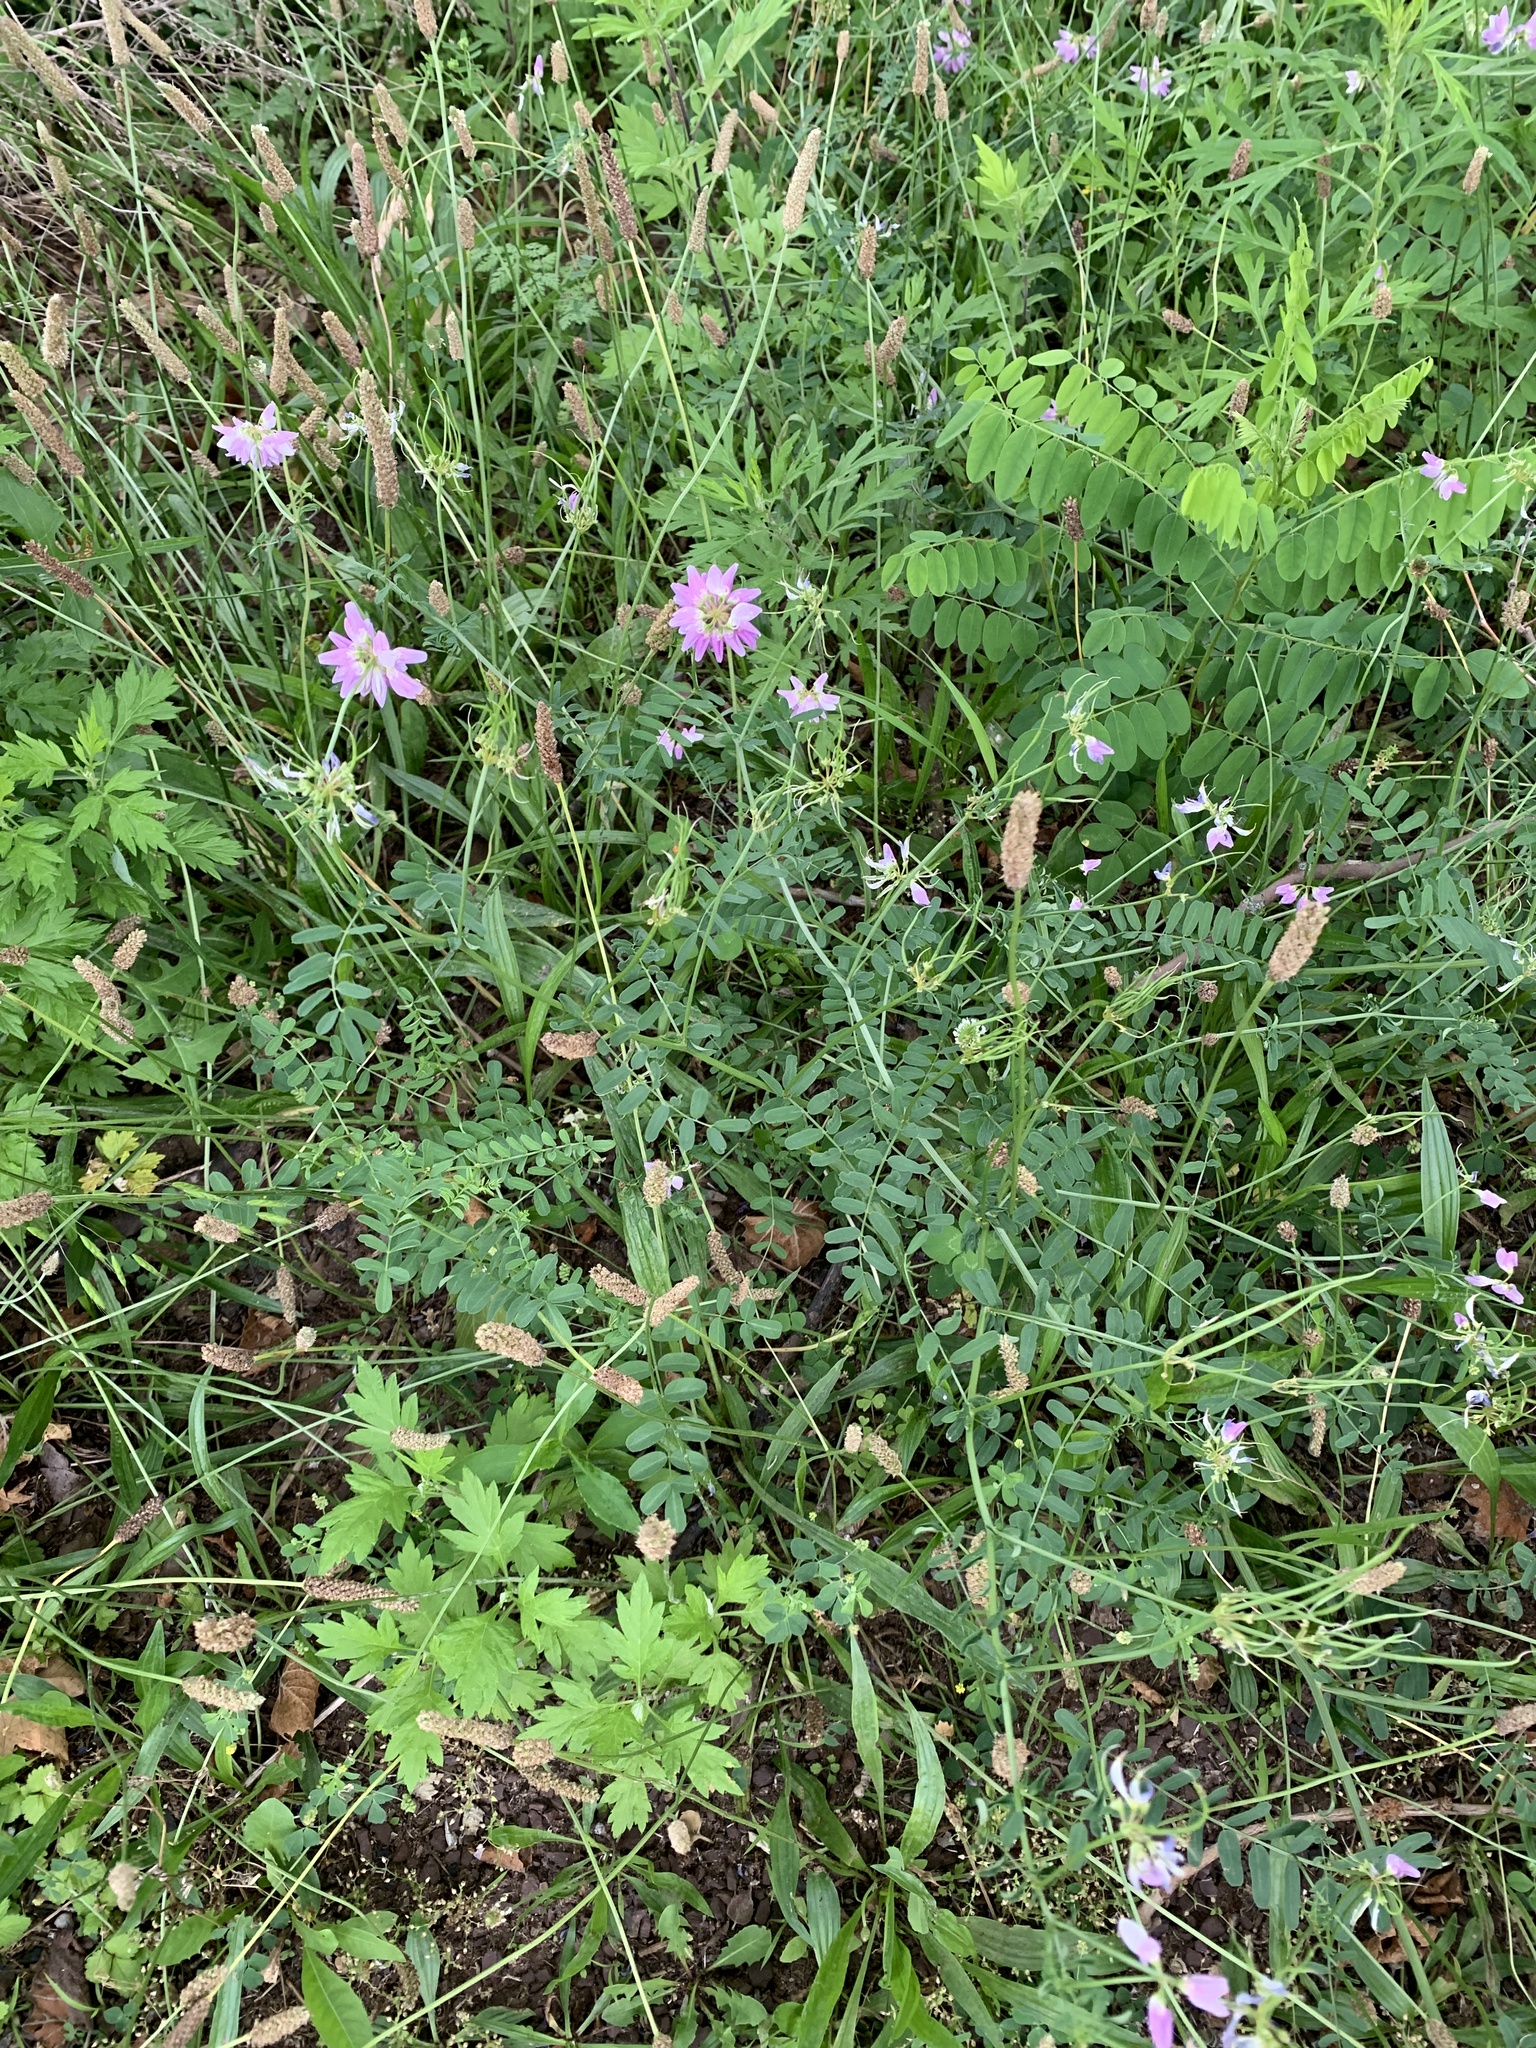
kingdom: Plantae
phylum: Tracheophyta
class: Magnoliopsida
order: Fabales
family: Fabaceae
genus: Coronilla
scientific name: Coronilla varia
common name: Crownvetch
